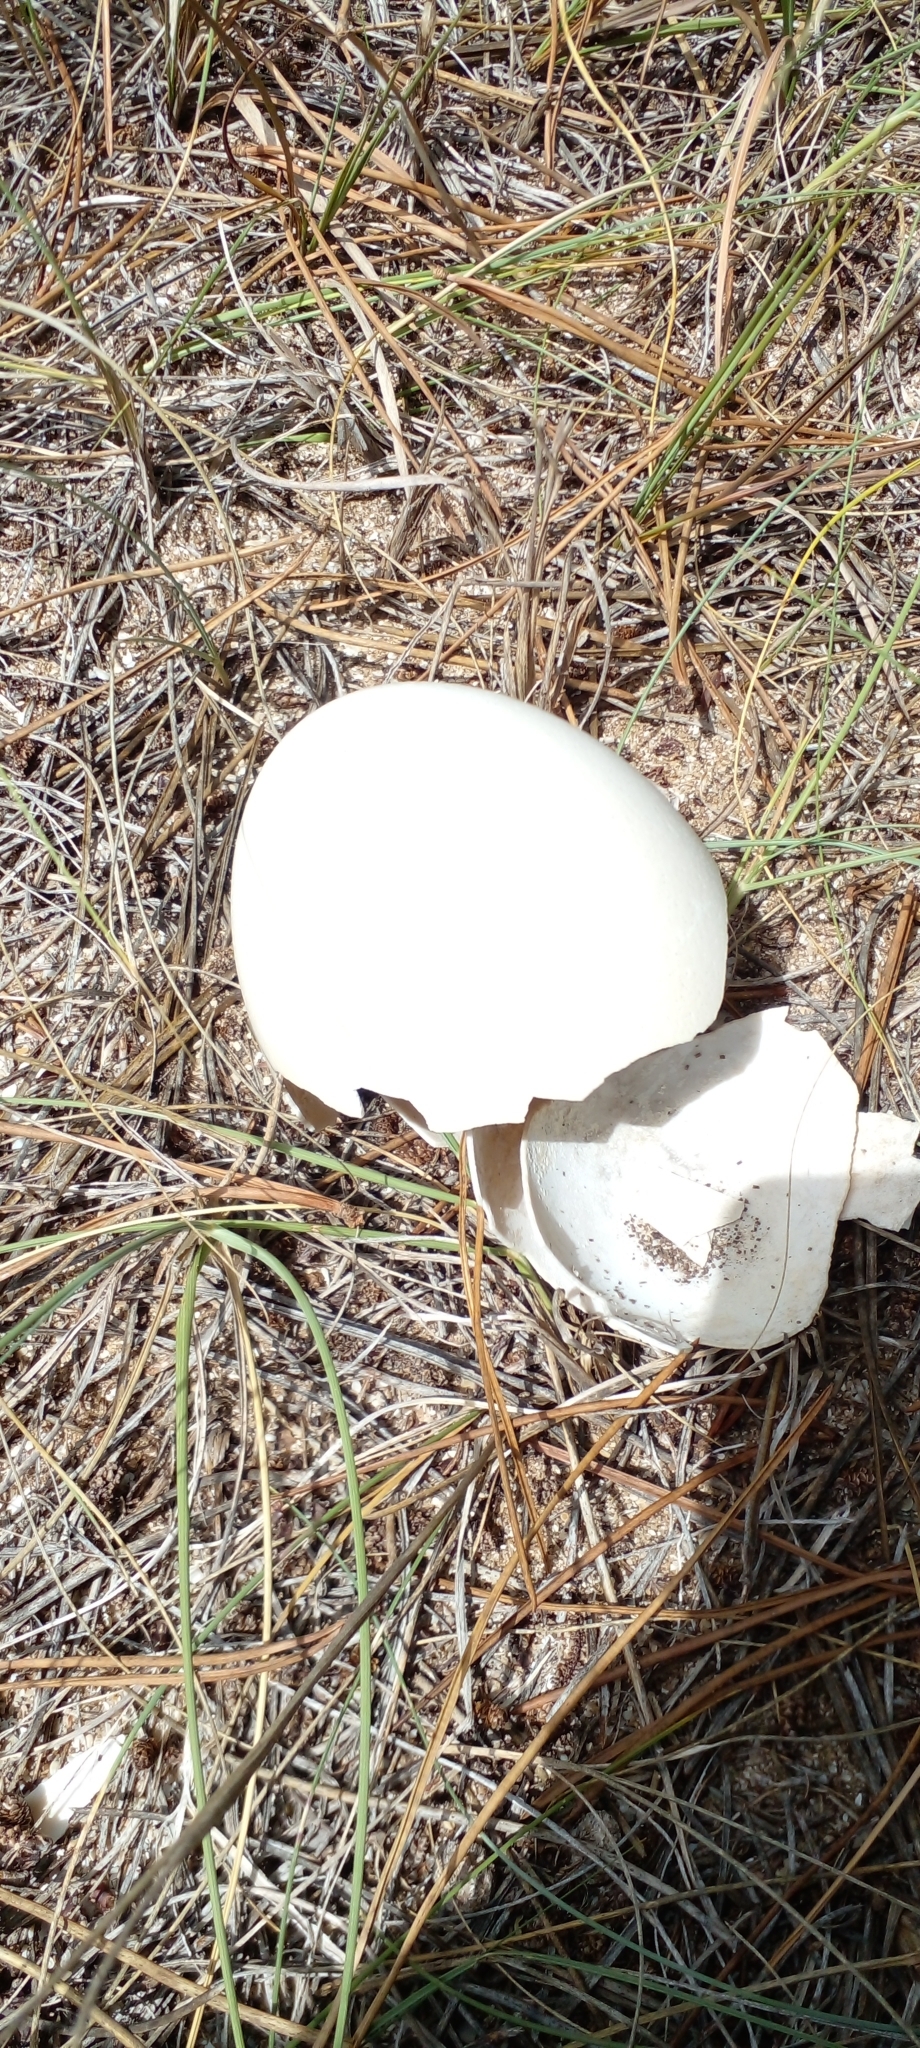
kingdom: Animalia
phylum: Chordata
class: Aves
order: Rheiformes
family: Rheidae
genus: Rhea
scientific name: Rhea americana
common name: Greater rhea
